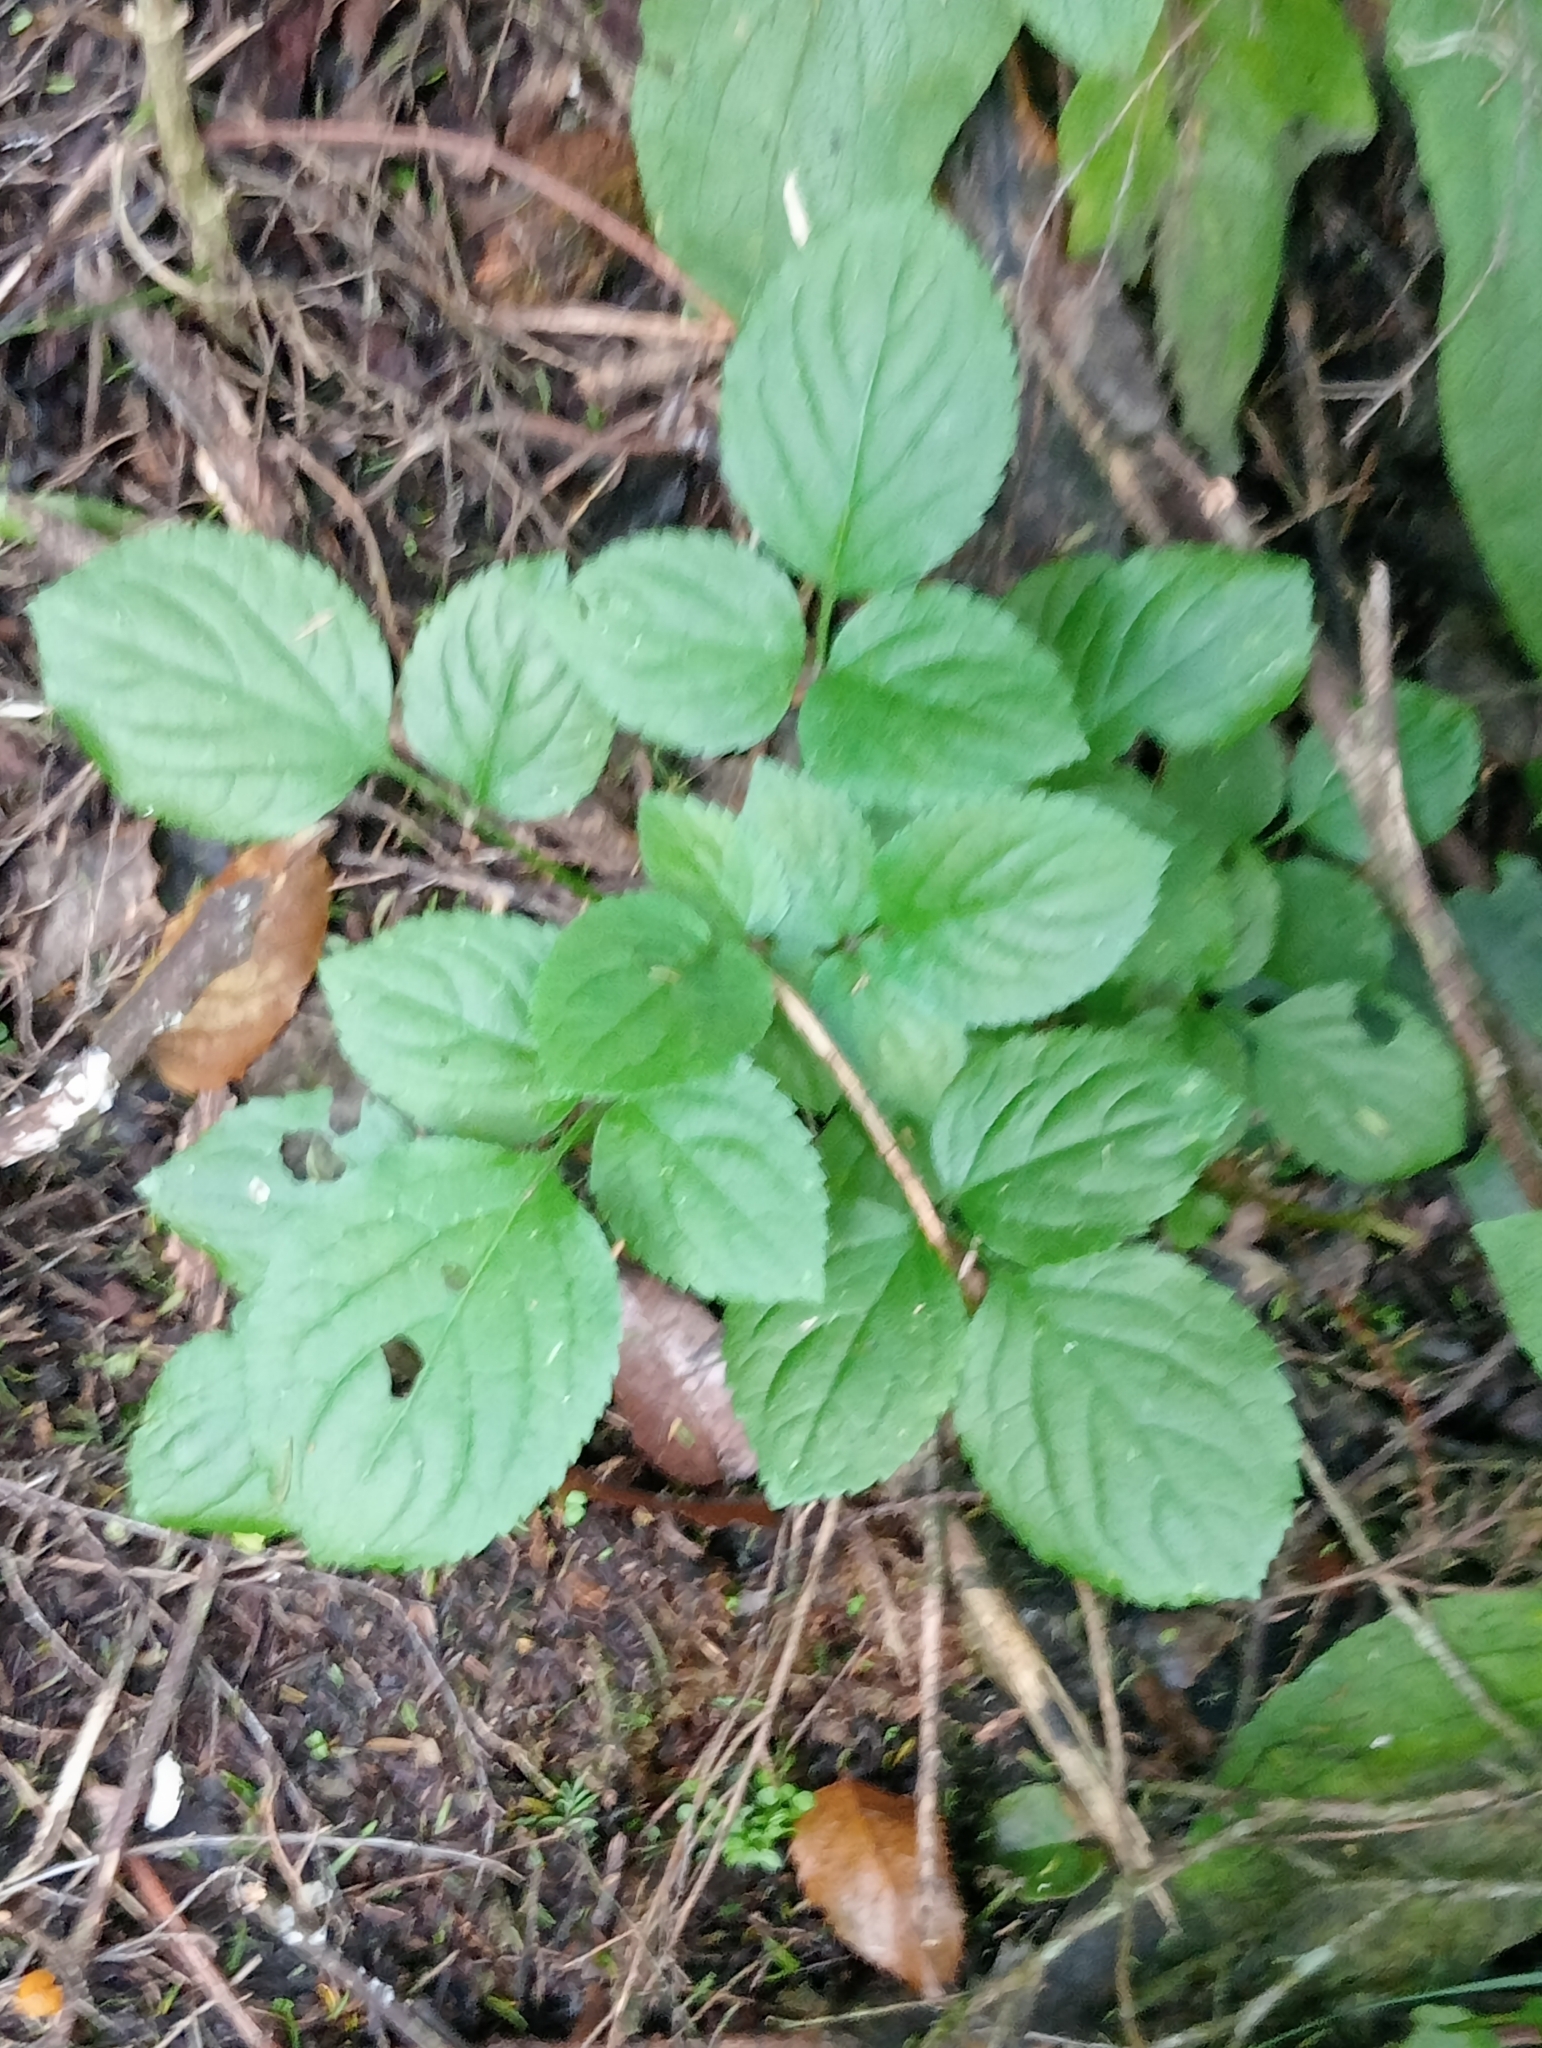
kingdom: Plantae
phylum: Tracheophyta
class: Magnoliopsida
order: Dipsacales
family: Viburnaceae
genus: Sambucus
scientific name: Sambucus nigra
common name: Elder
